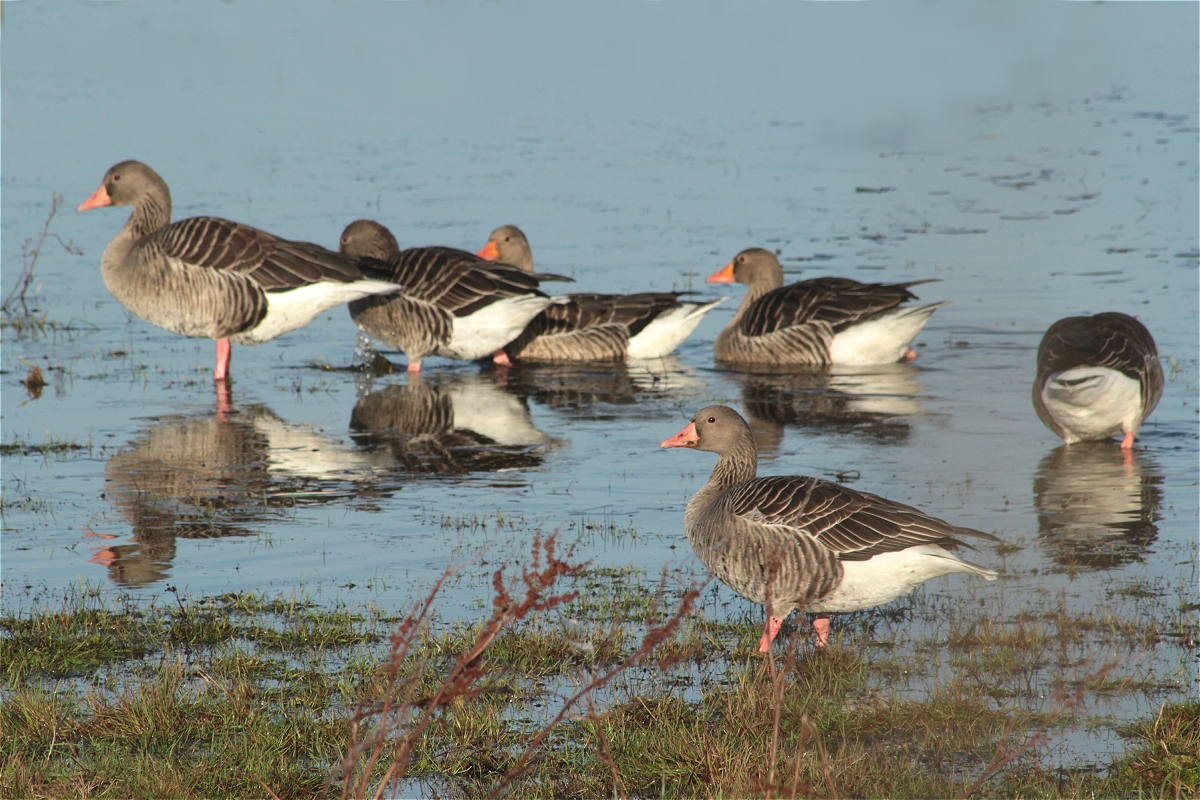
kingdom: Animalia
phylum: Chordata
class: Aves
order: Anseriformes
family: Anatidae
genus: Anser
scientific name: Anser anser
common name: Greylag goose
